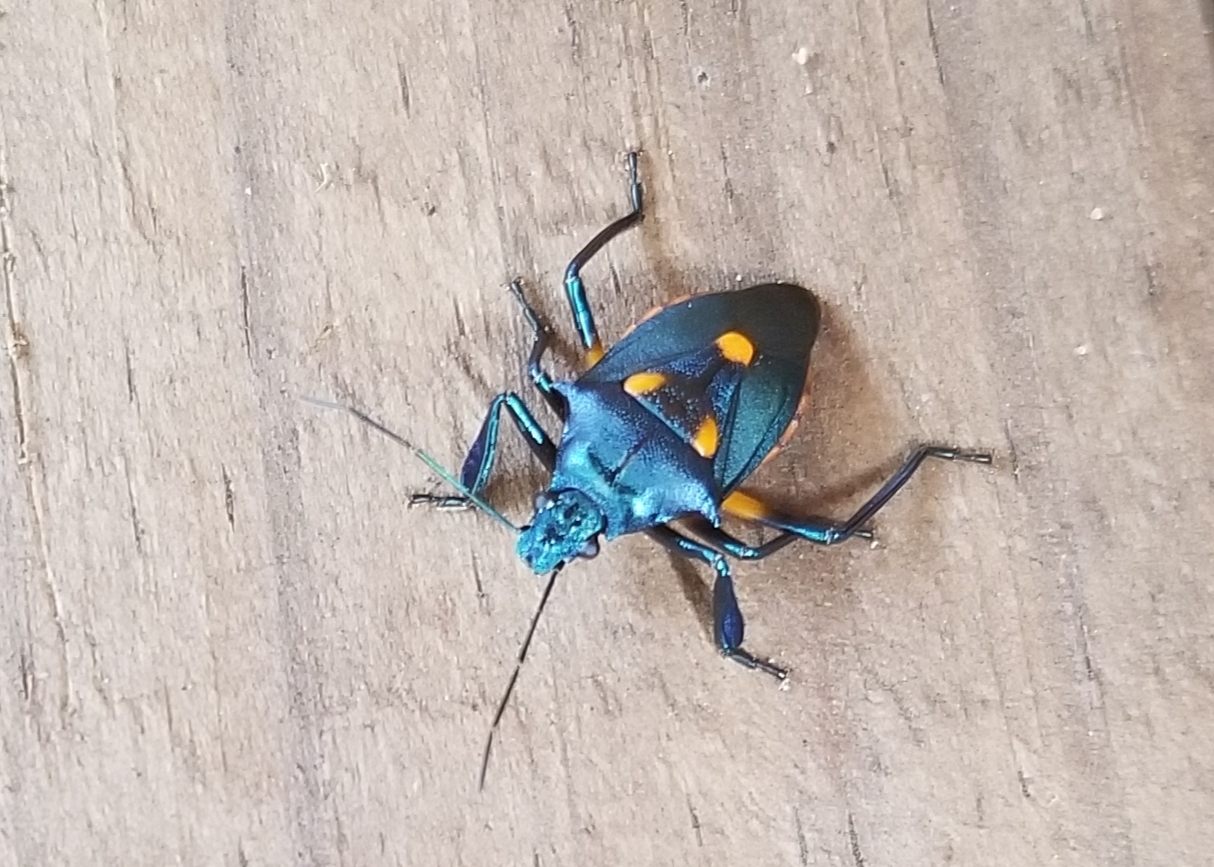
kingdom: Animalia
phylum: Arthropoda
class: Insecta
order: Hemiptera
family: Pentatomidae
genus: Euthyrhynchus
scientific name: Euthyrhynchus floridanus
